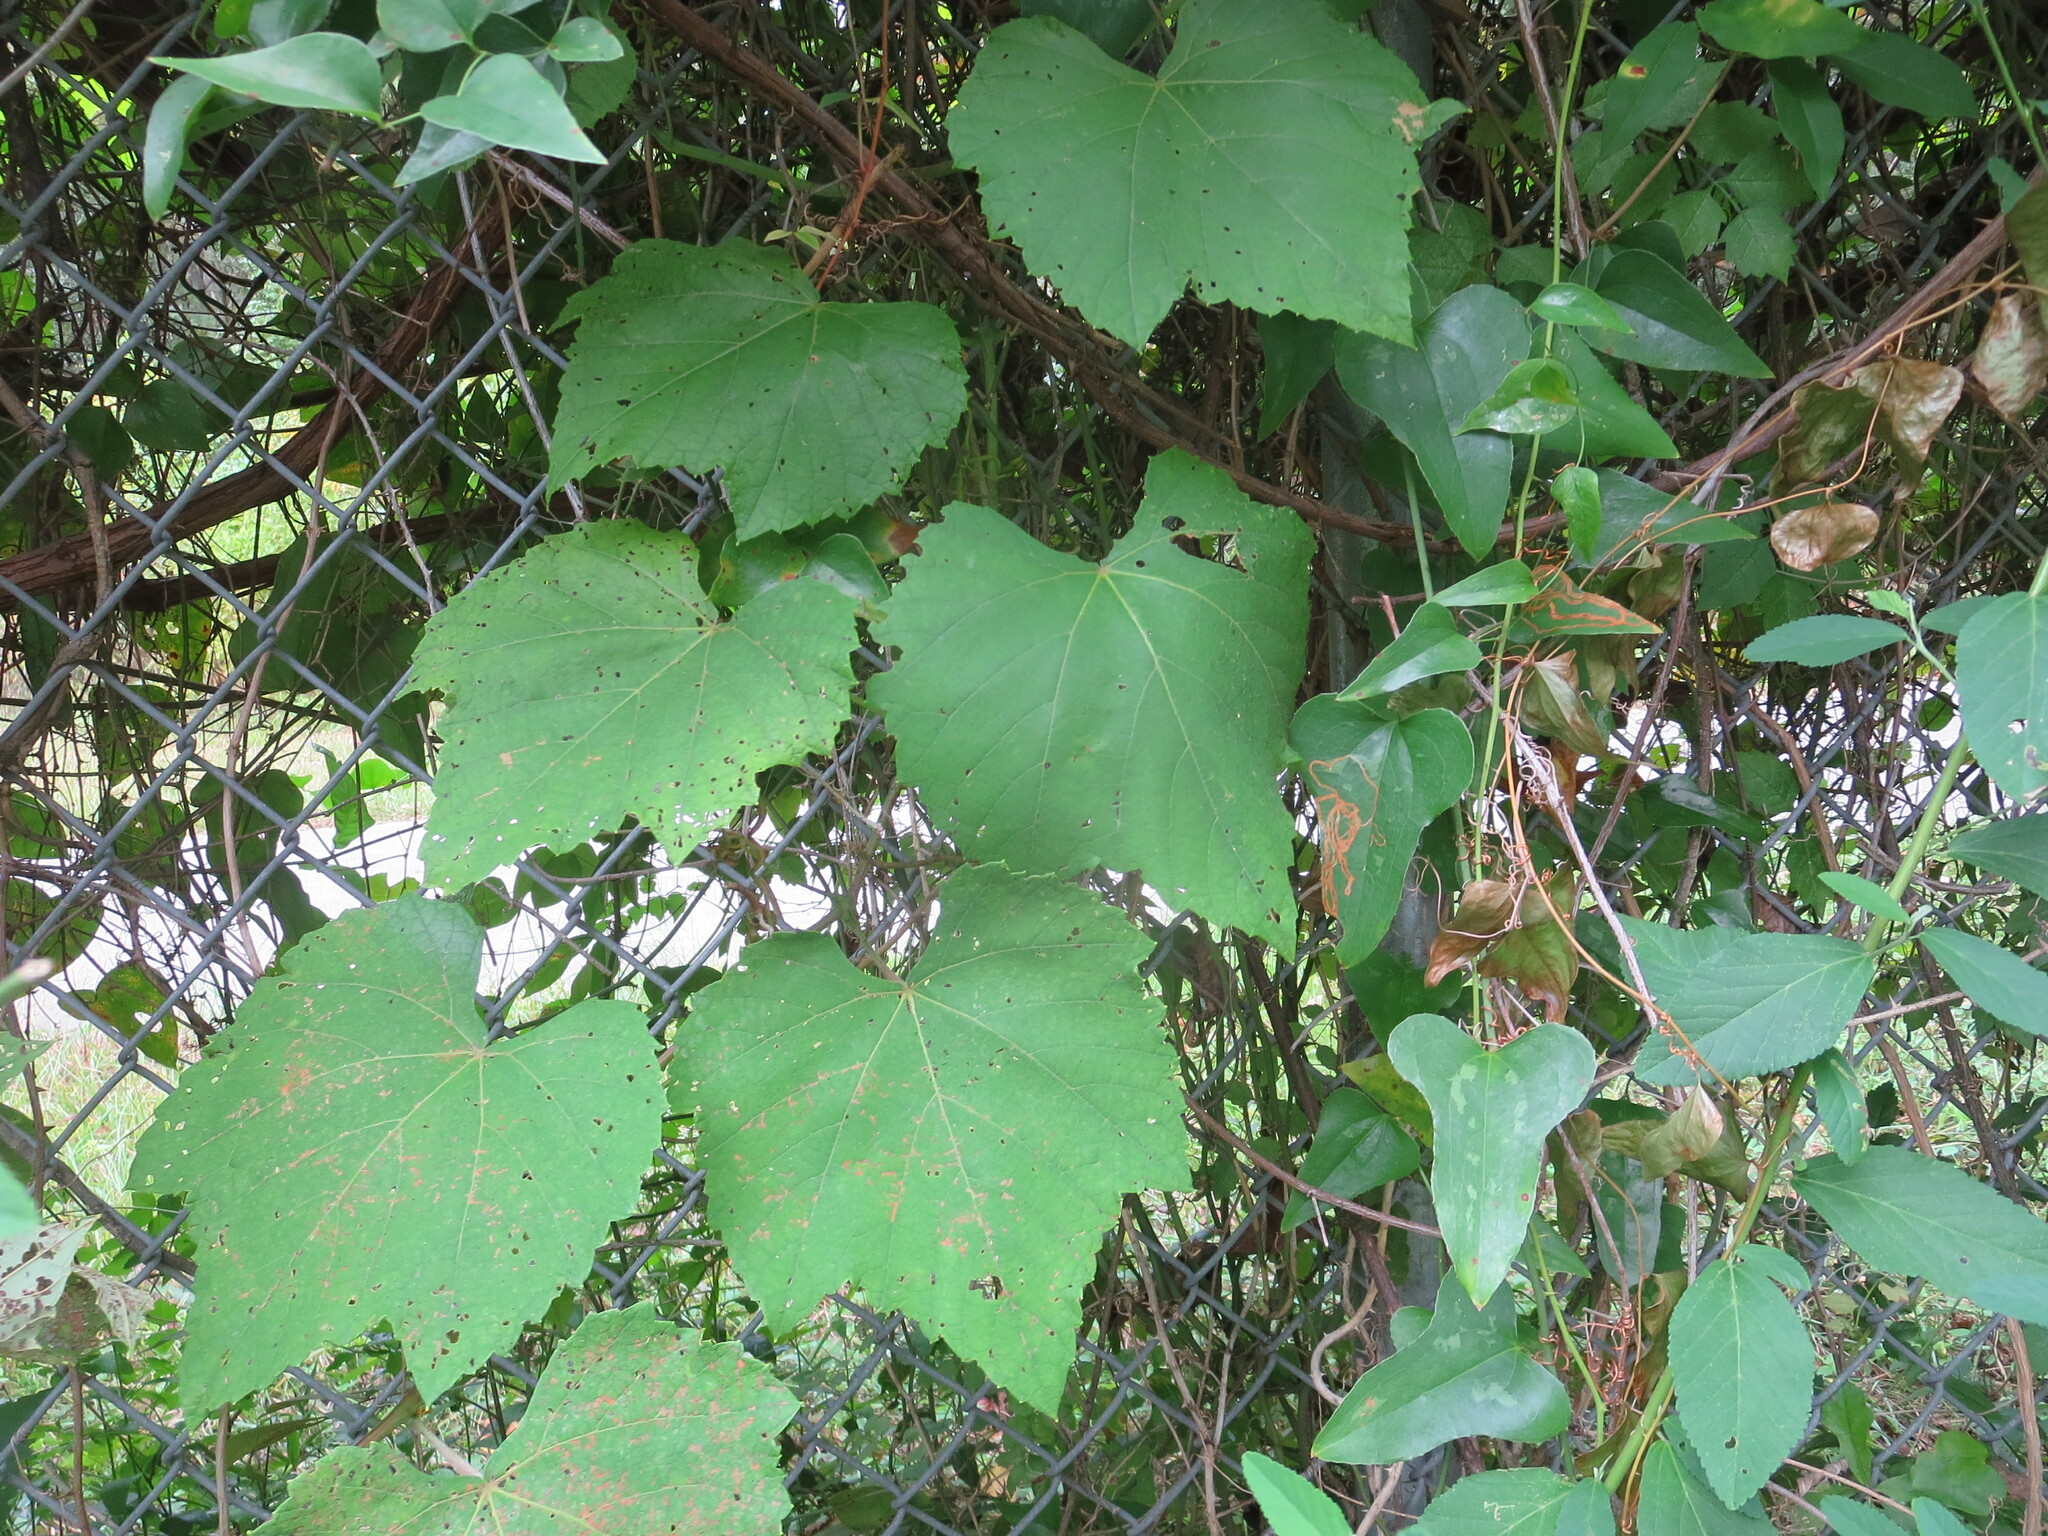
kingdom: Plantae
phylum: Tracheophyta
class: Liliopsida
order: Liliales
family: Smilacaceae
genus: Smilax
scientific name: Smilax bona-nox
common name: Catbrier
